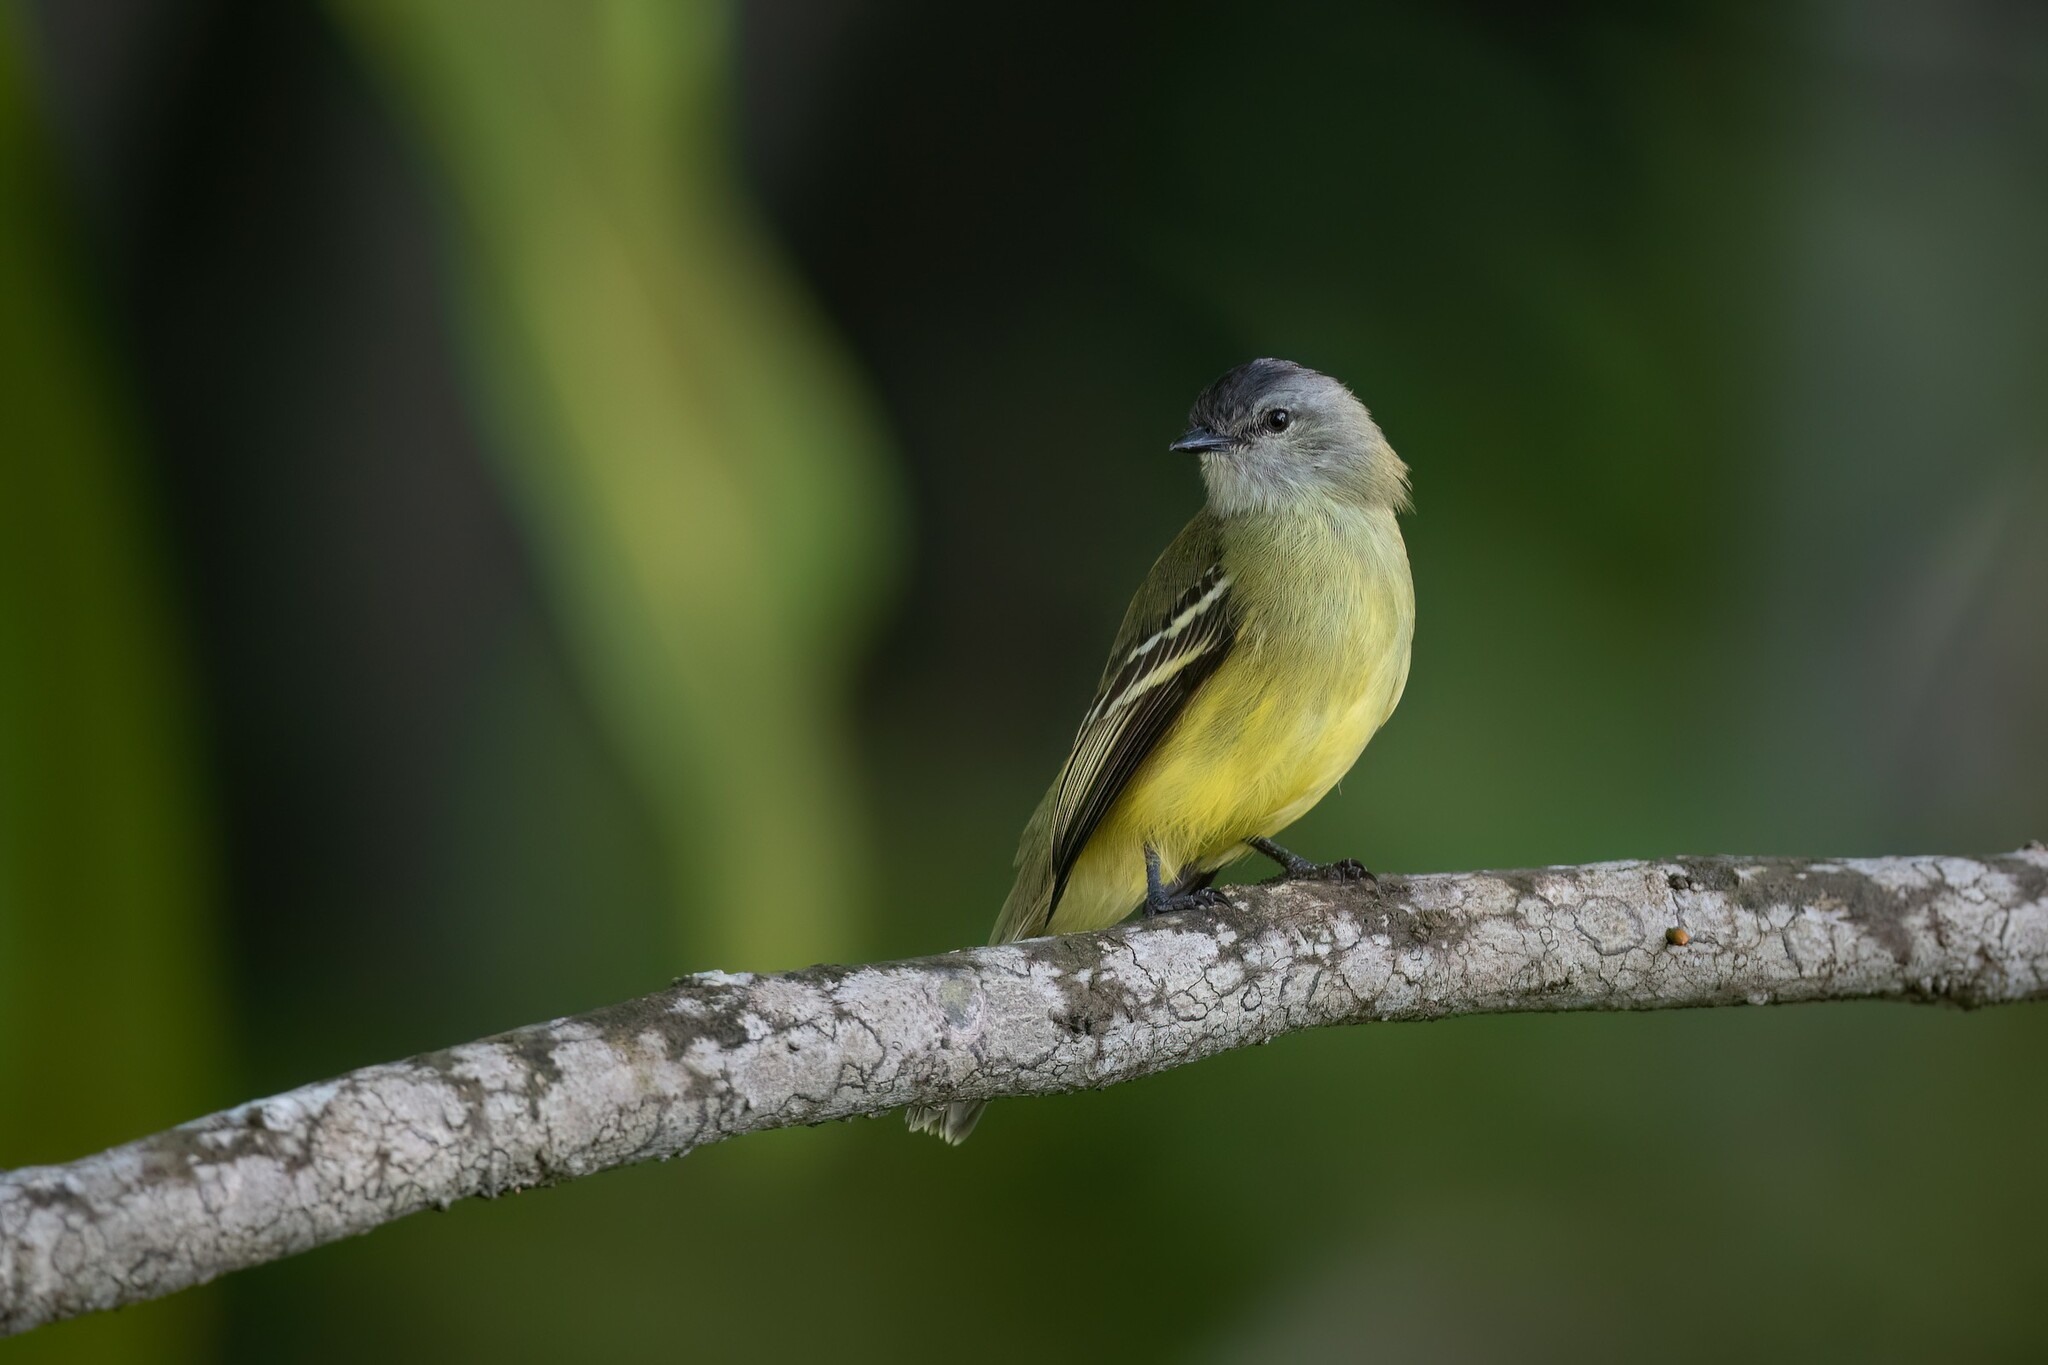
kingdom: Animalia
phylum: Chordata
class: Aves
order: Passeriformes
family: Tyrannidae
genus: Tyrannulus
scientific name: Tyrannulus elatus
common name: Yellow-crowned tyrannulet
